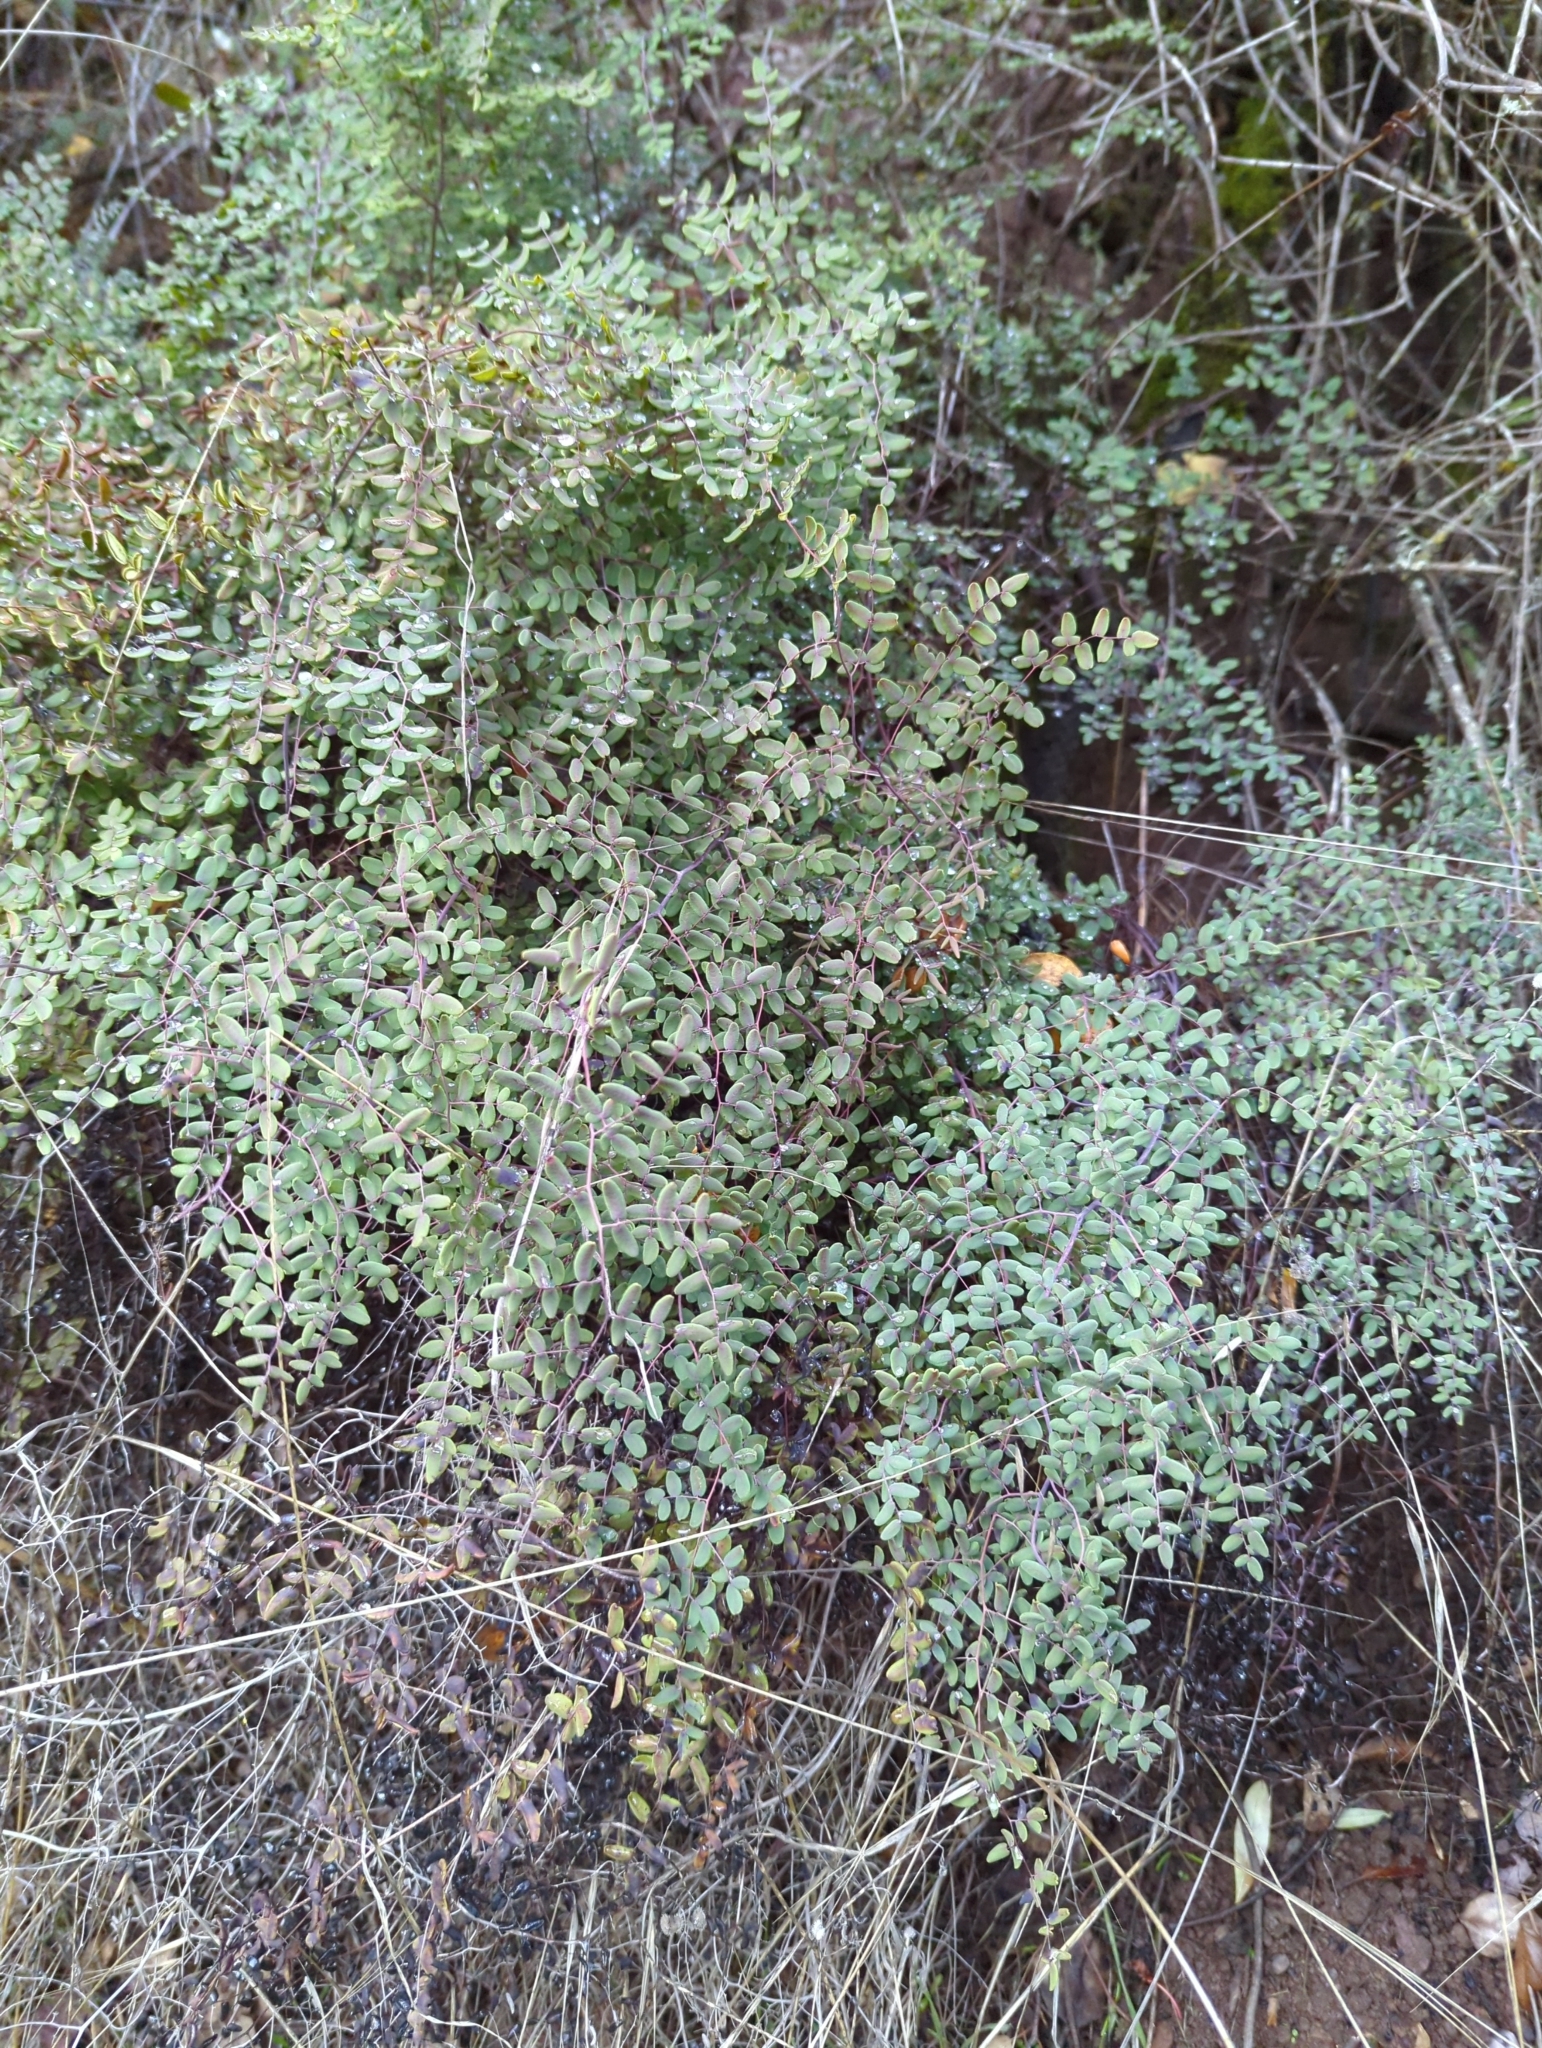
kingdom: Plantae
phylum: Tracheophyta
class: Polypodiopsida
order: Polypodiales
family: Pteridaceae
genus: Pellaea
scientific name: Pellaea andromedifolia
